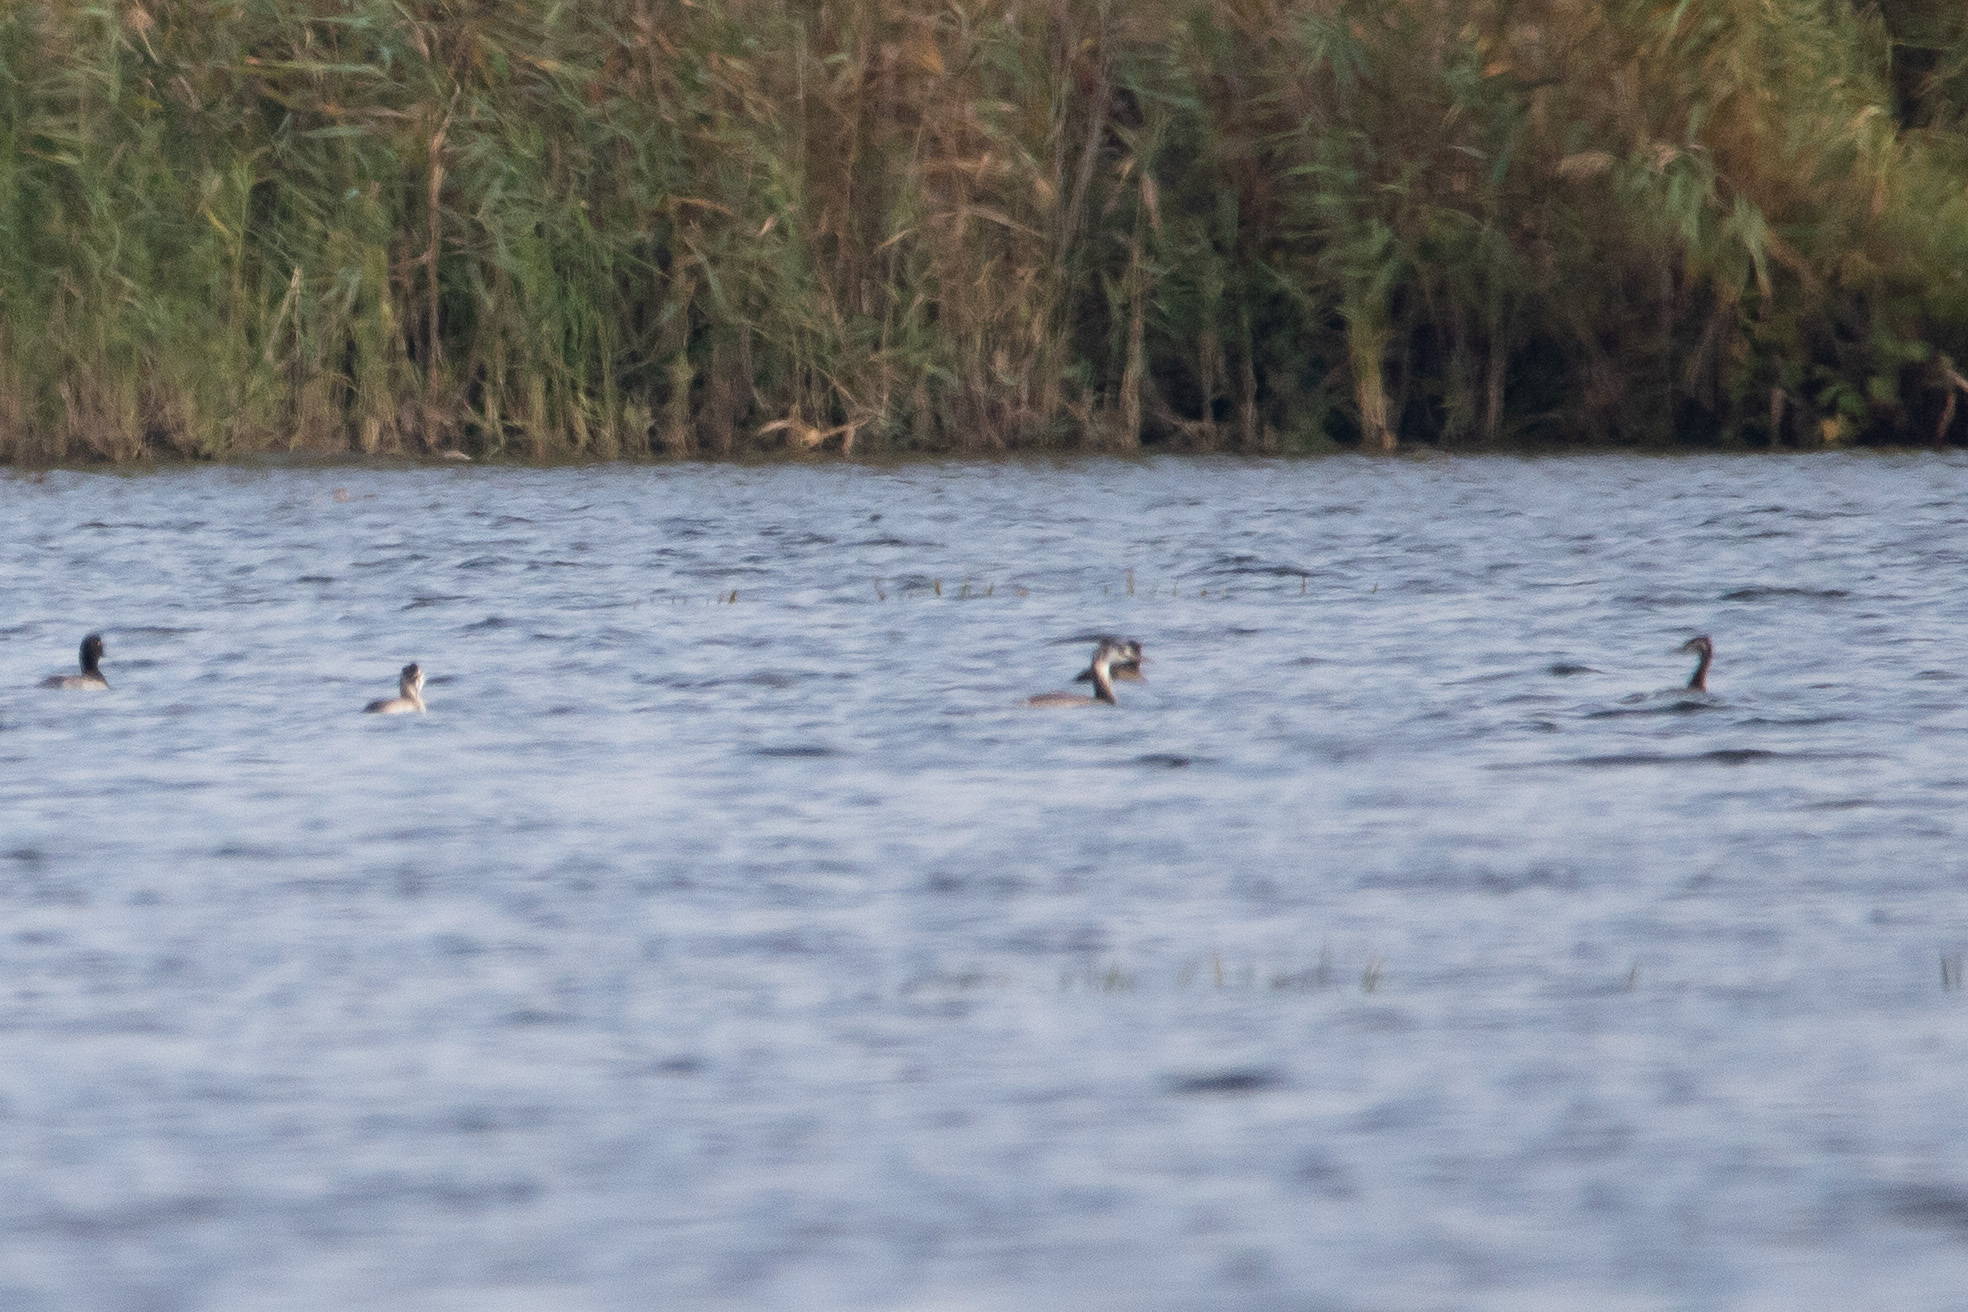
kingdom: Animalia
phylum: Chordata
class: Aves
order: Podicipediformes
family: Podicipedidae
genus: Podiceps
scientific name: Podiceps cristatus
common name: Great crested grebe
